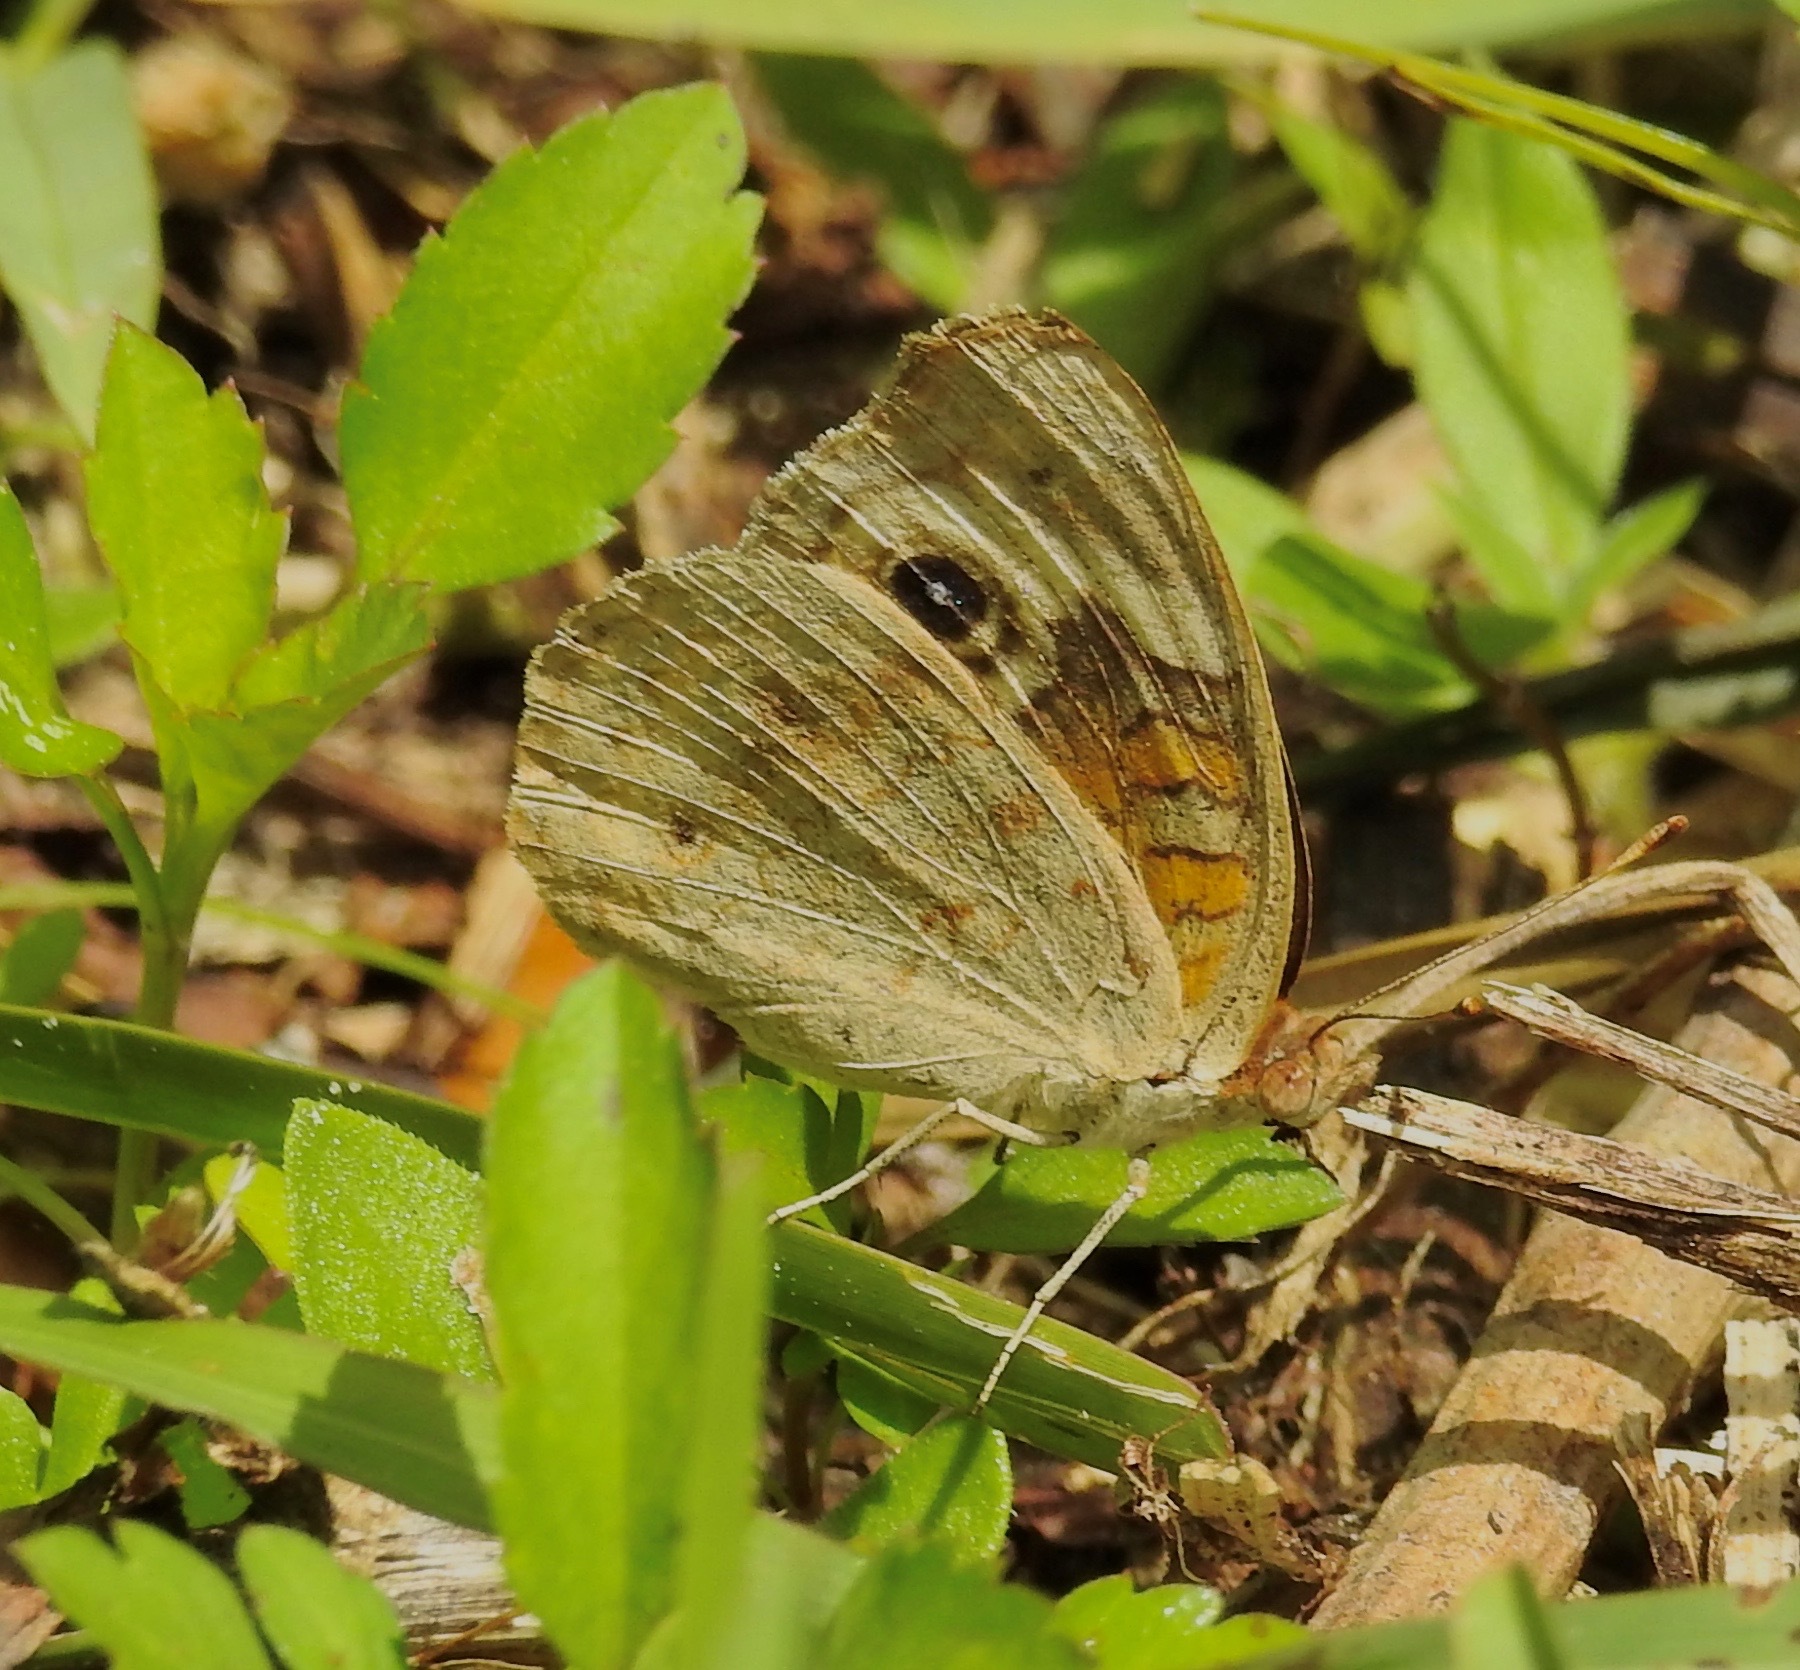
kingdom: Animalia
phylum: Arthropoda
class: Insecta
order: Lepidoptera
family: Nymphalidae
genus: Junonia
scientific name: Junonia coenia
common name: Common buckeye
